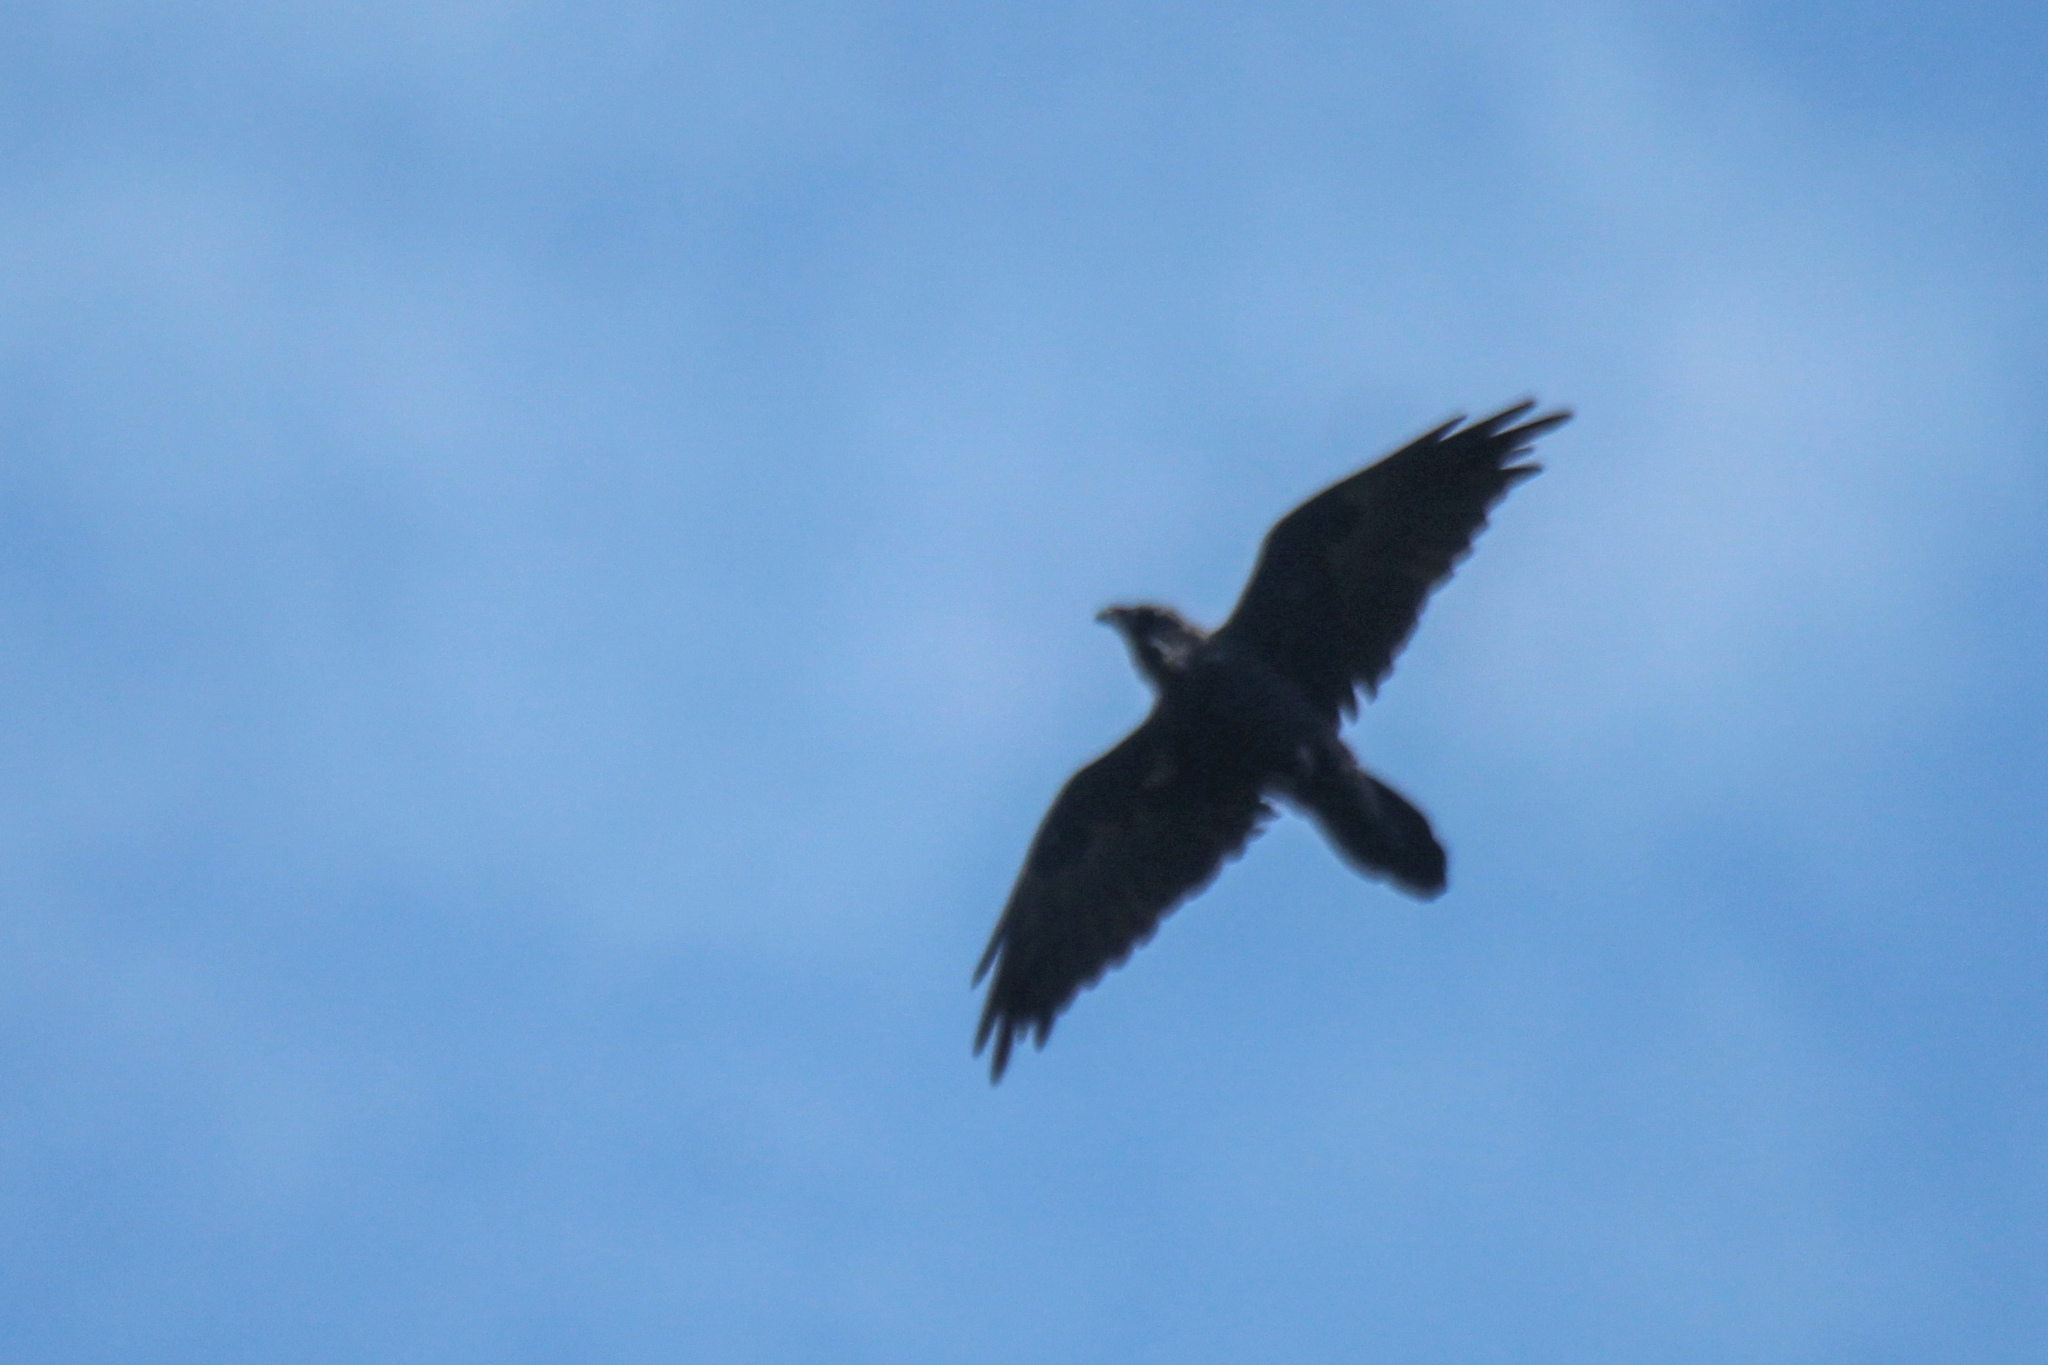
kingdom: Animalia
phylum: Chordata
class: Aves
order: Passeriformes
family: Corvidae
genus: Corvus
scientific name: Corvus corax
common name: Common raven
